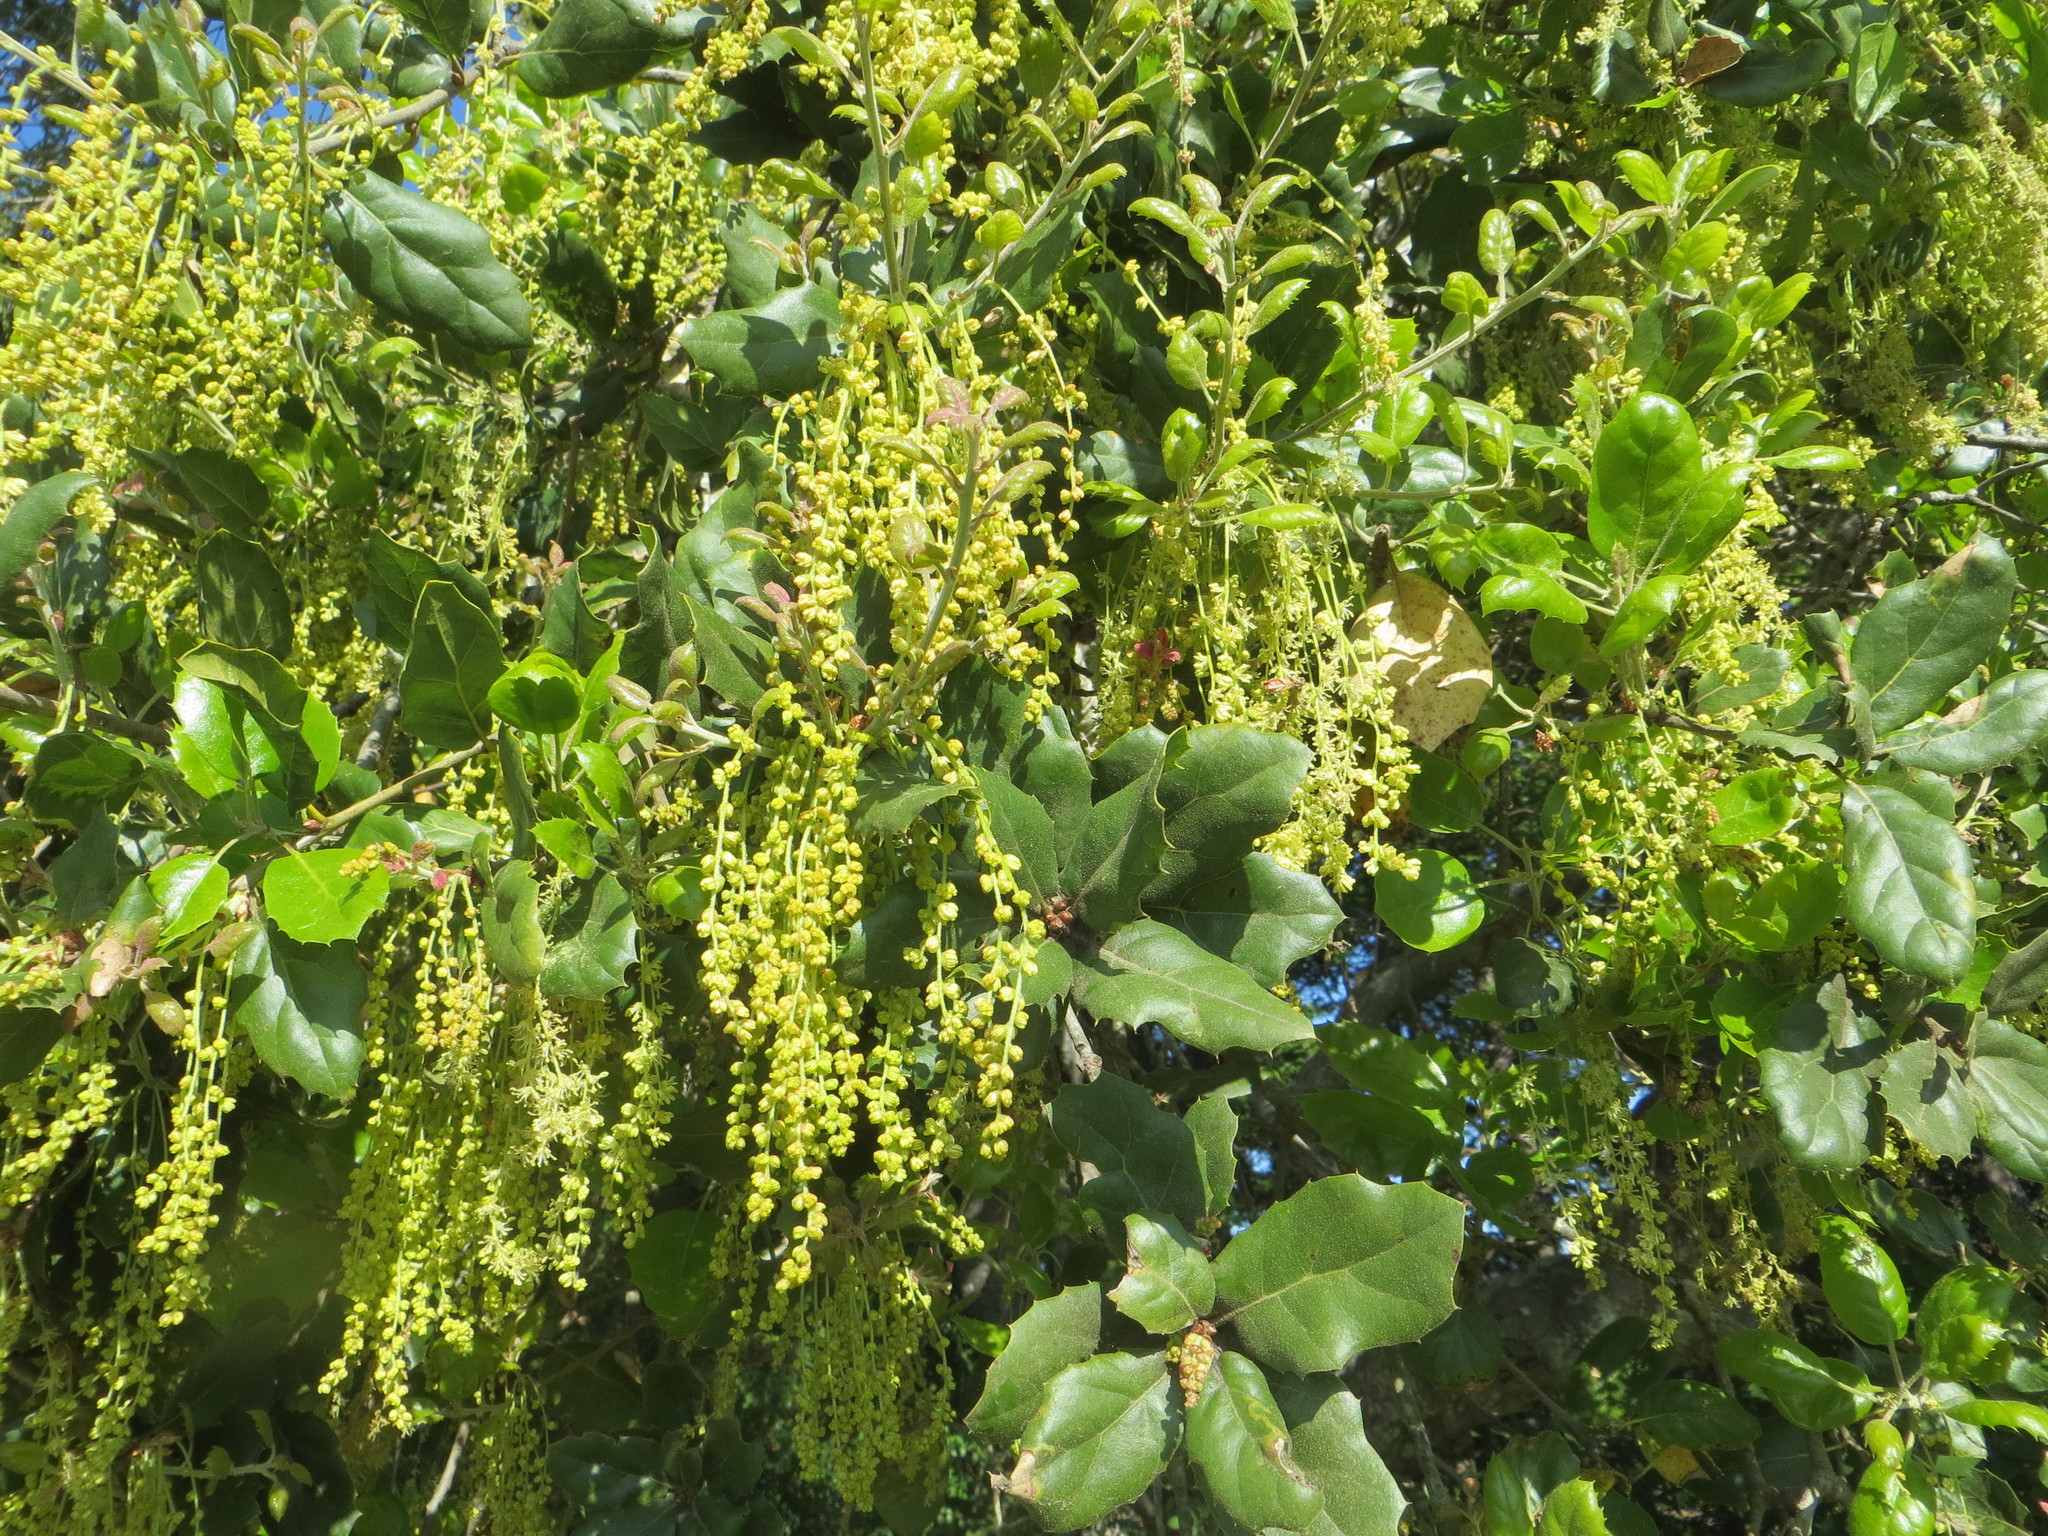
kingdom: Plantae
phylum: Tracheophyta
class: Magnoliopsida
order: Fagales
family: Fagaceae
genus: Quercus
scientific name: Quercus agrifolia
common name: California live oak
